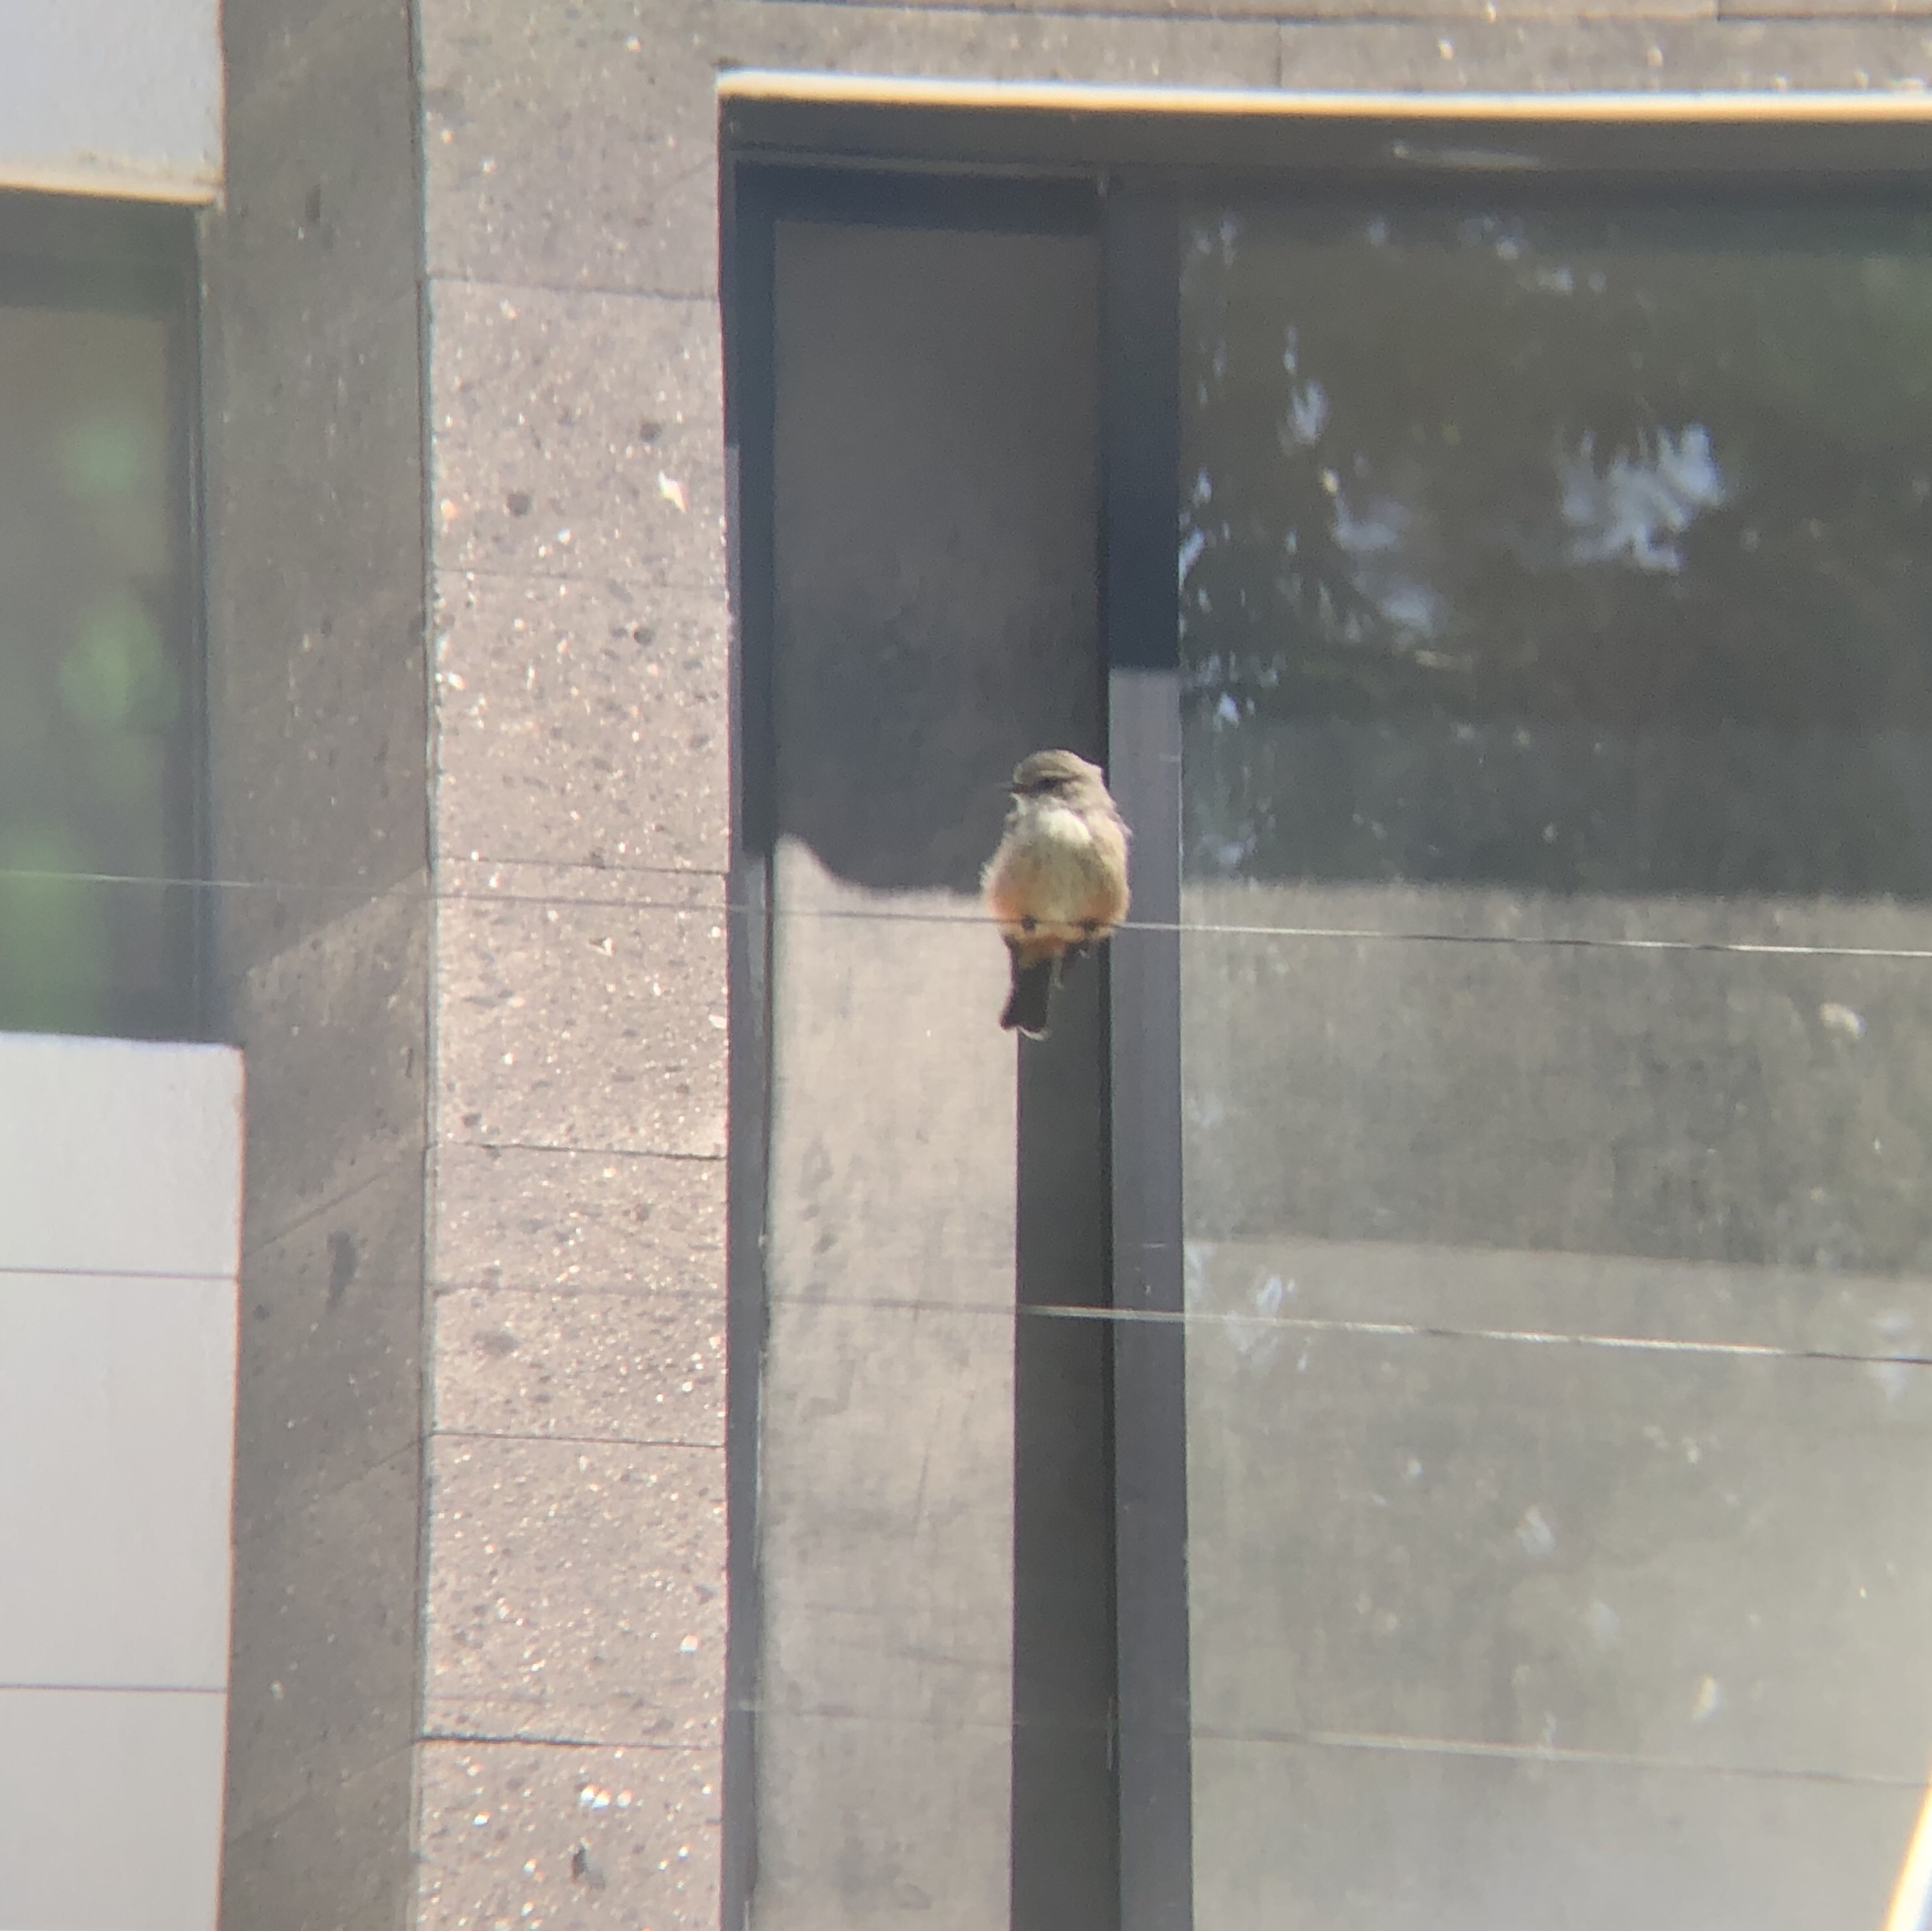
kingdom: Animalia
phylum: Chordata
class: Aves
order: Passeriformes
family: Tyrannidae
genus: Pyrocephalus
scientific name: Pyrocephalus rubinus
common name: Vermilion flycatcher
